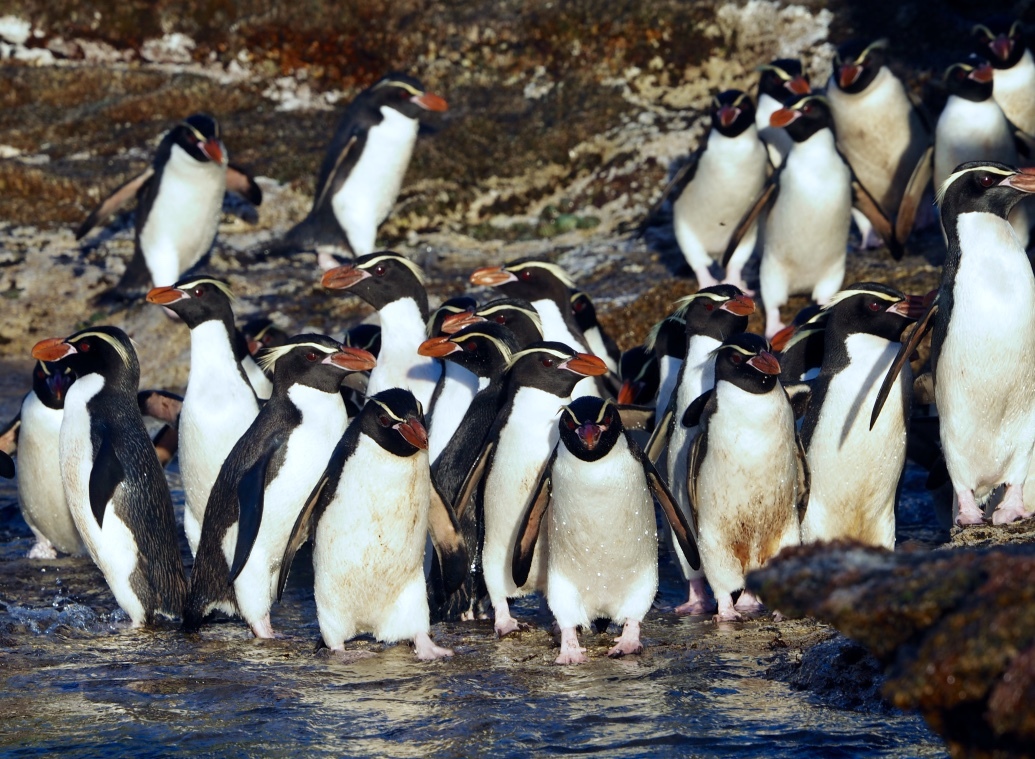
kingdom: Animalia
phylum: Chordata
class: Aves
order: Sphenisciformes
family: Spheniscidae
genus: Eudyptes
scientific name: Eudyptes robustus
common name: Snares penguin
